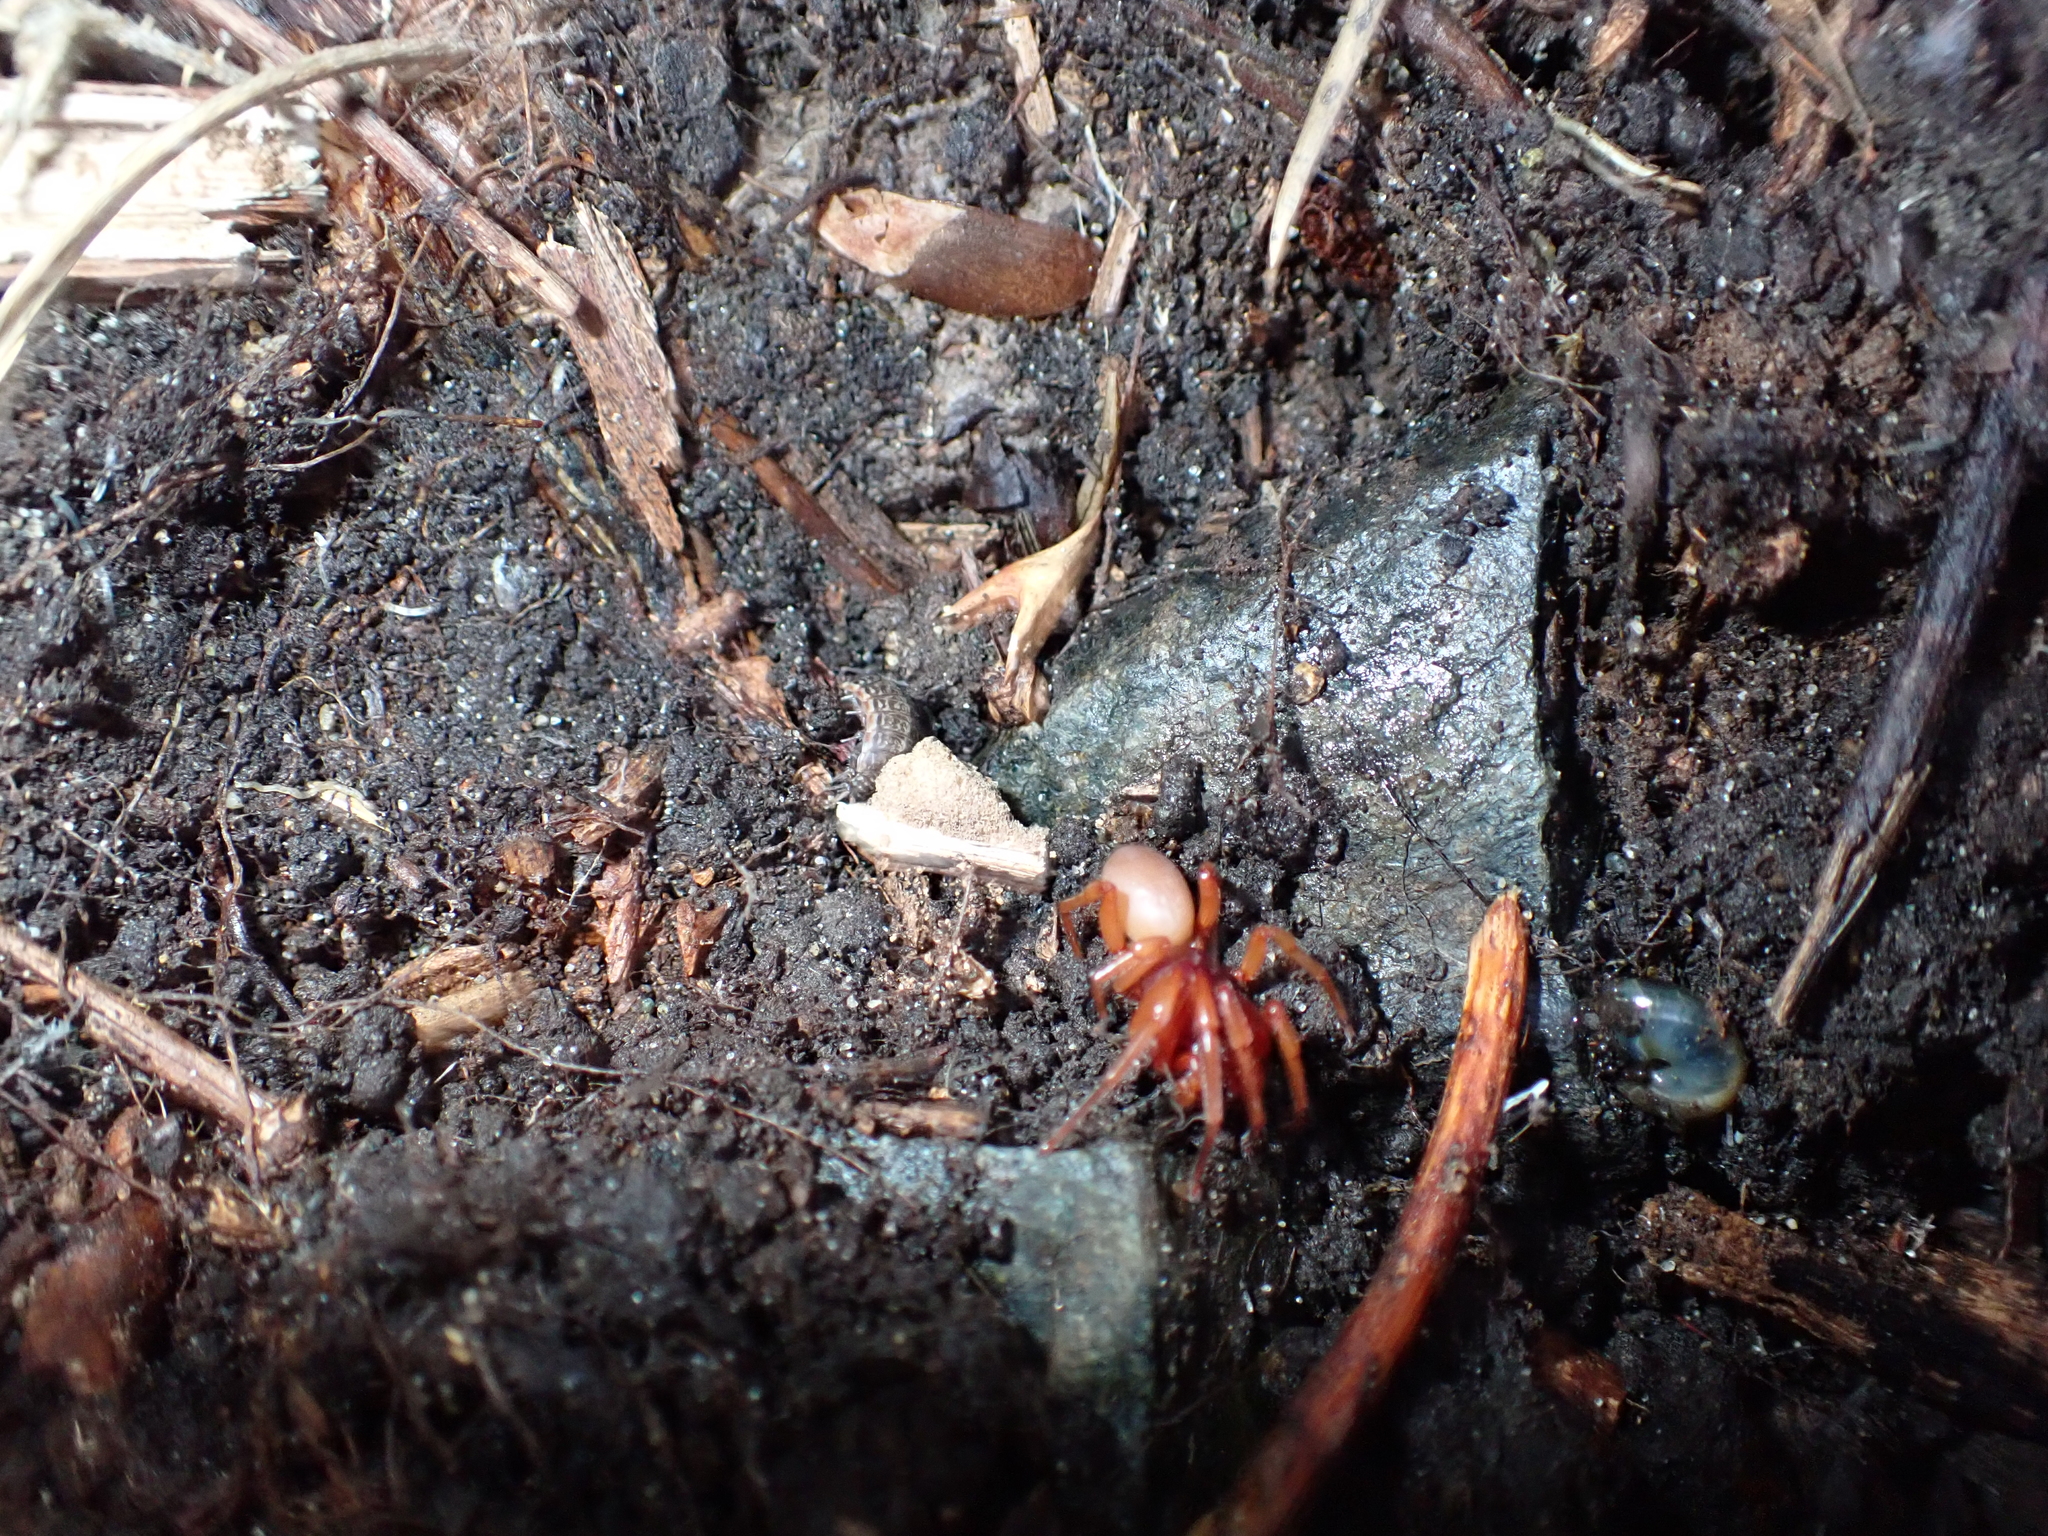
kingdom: Animalia
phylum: Arthropoda
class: Arachnida
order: Araneae
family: Dysderidae
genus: Dysdera
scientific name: Dysdera crocata
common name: Woodlouse spider
